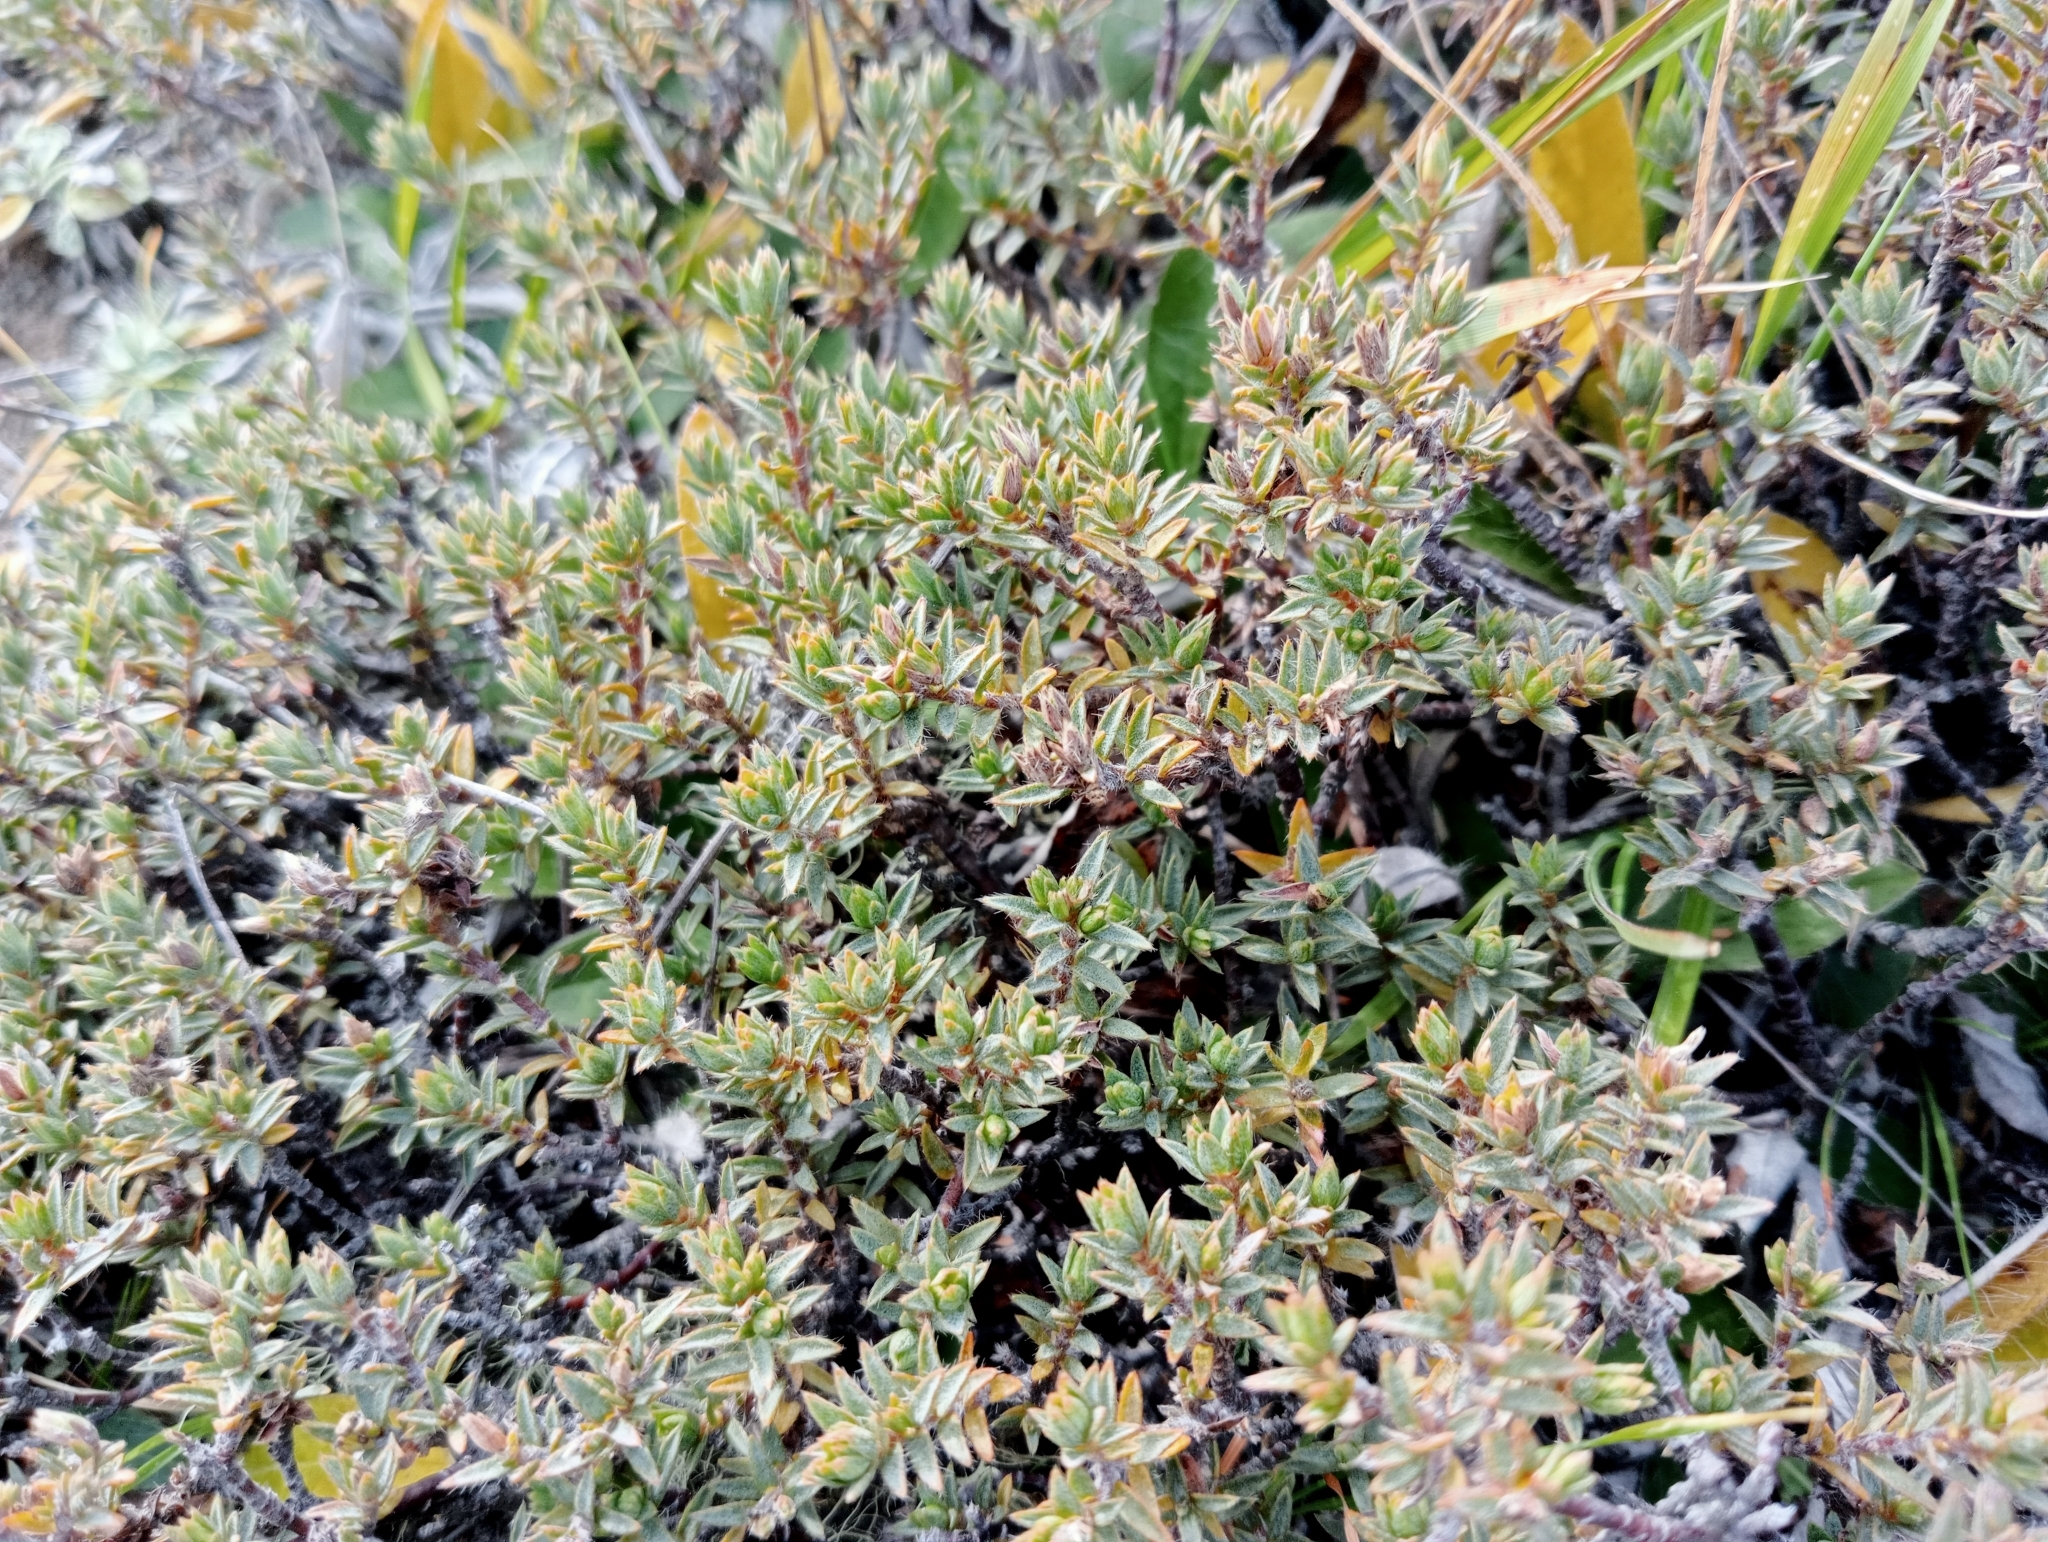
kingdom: Plantae
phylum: Tracheophyta
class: Magnoliopsida
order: Malvales
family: Thymelaeaceae
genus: Pimelea
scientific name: Pimelea oreophila
